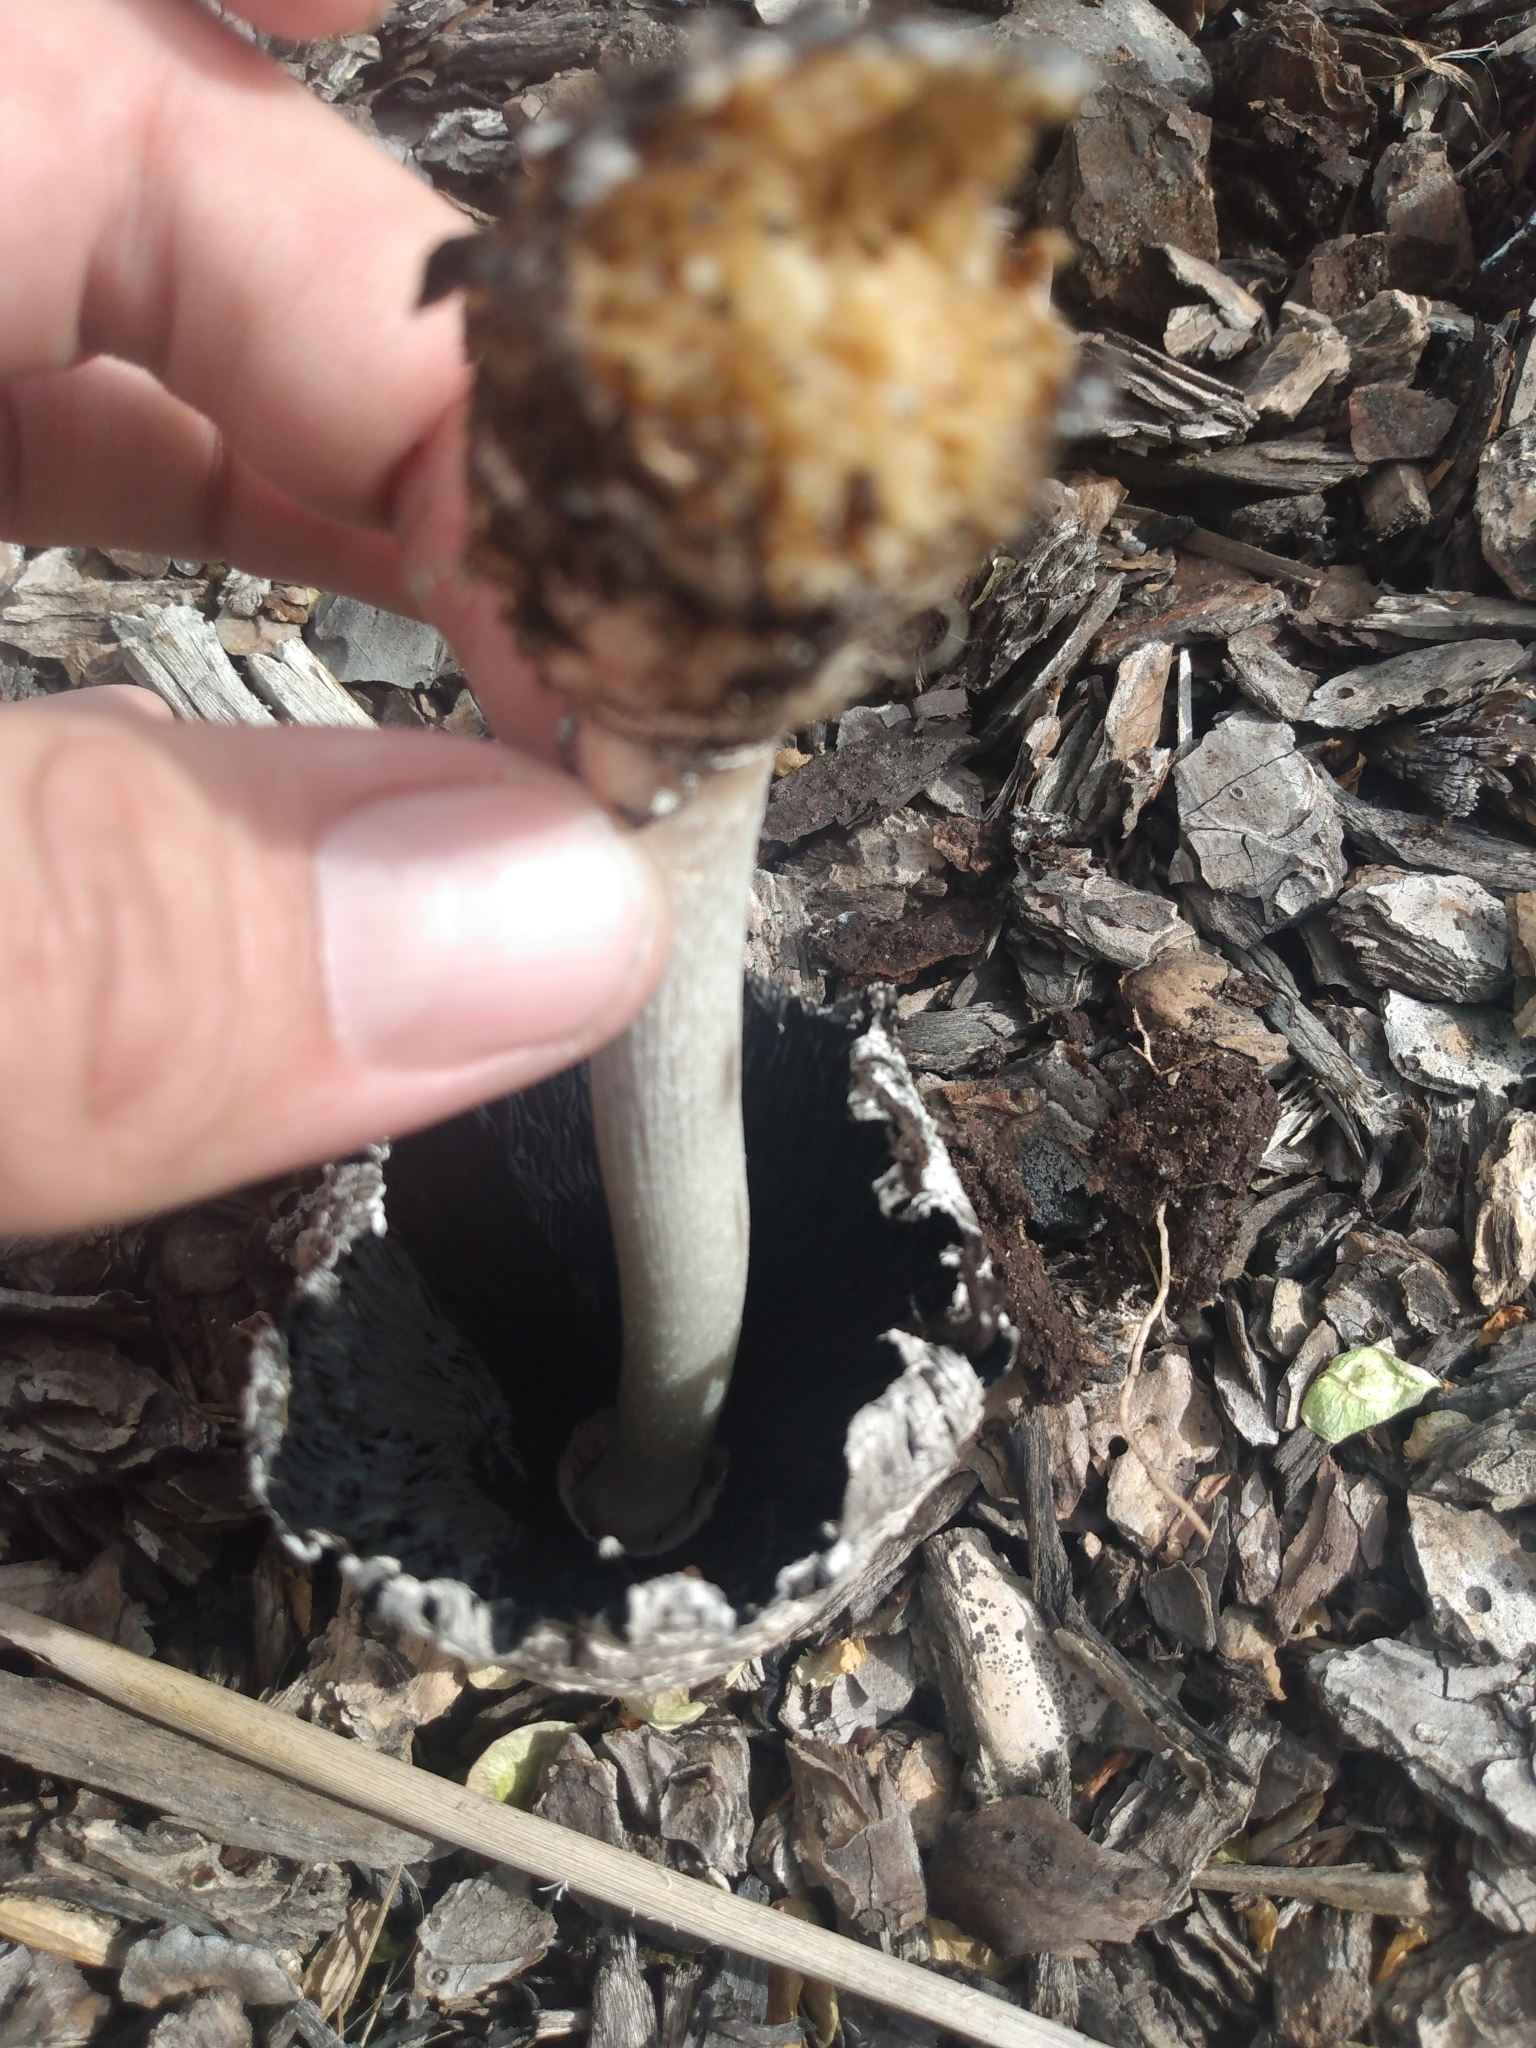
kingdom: Fungi
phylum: Basidiomycota
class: Agaricomycetes
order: Agaricales
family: Agaricaceae
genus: Coprinus
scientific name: Coprinus comatus
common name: Lawyer's wig
